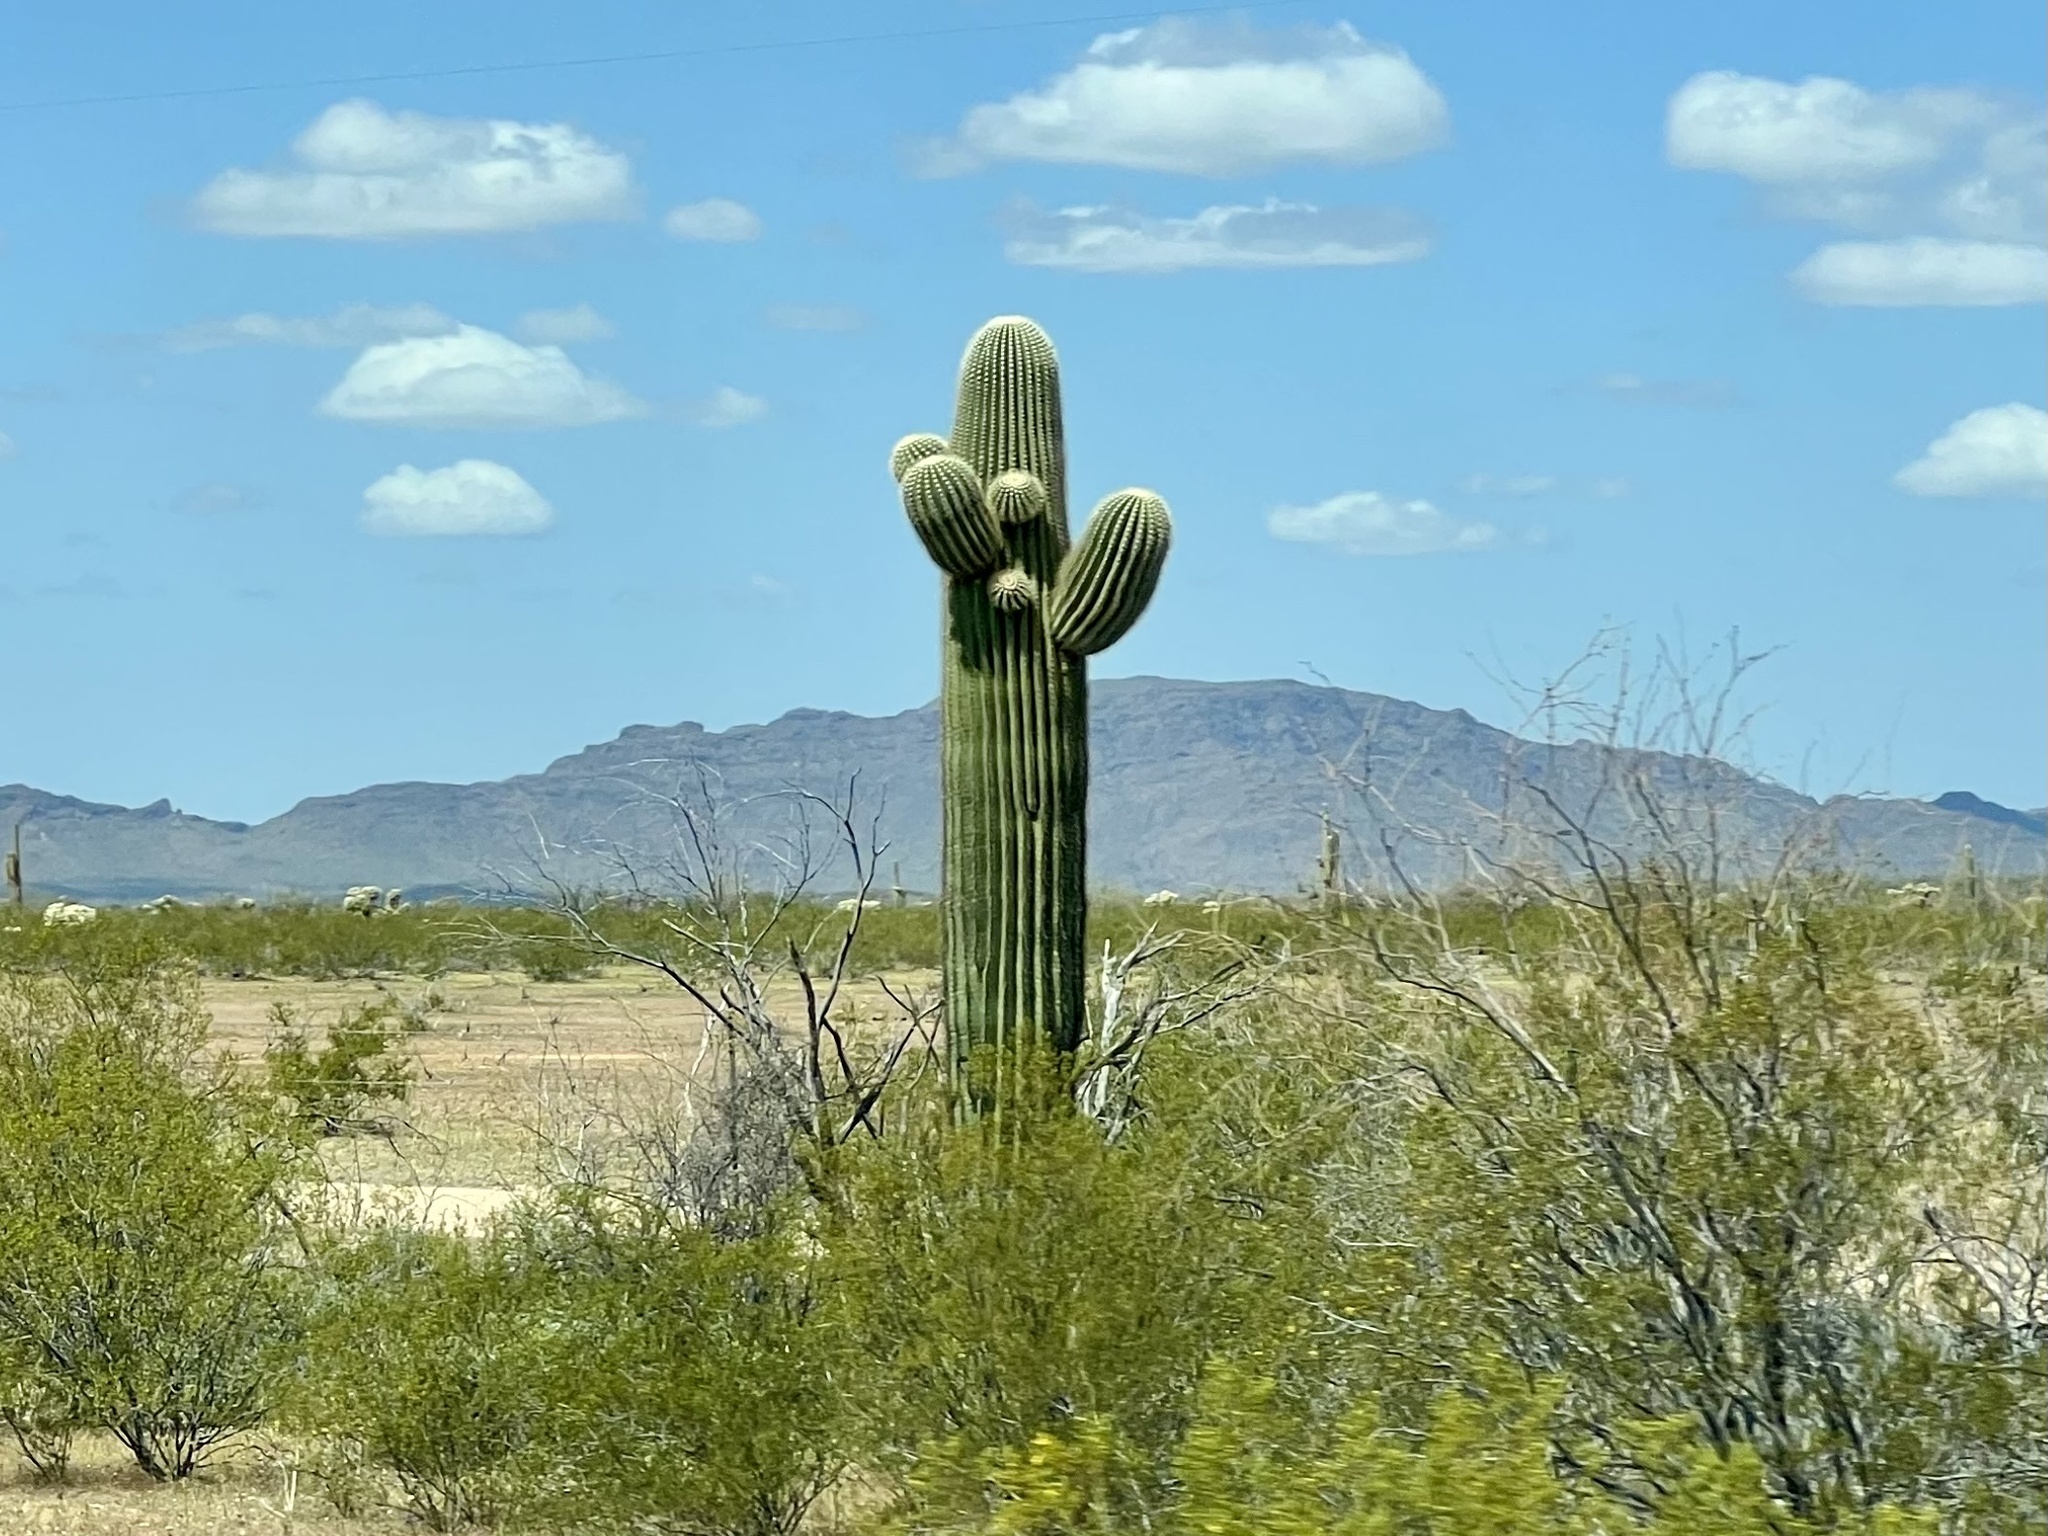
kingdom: Plantae
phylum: Tracheophyta
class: Magnoliopsida
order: Caryophyllales
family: Cactaceae
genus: Carnegiea
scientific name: Carnegiea gigantea
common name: Saguaro
